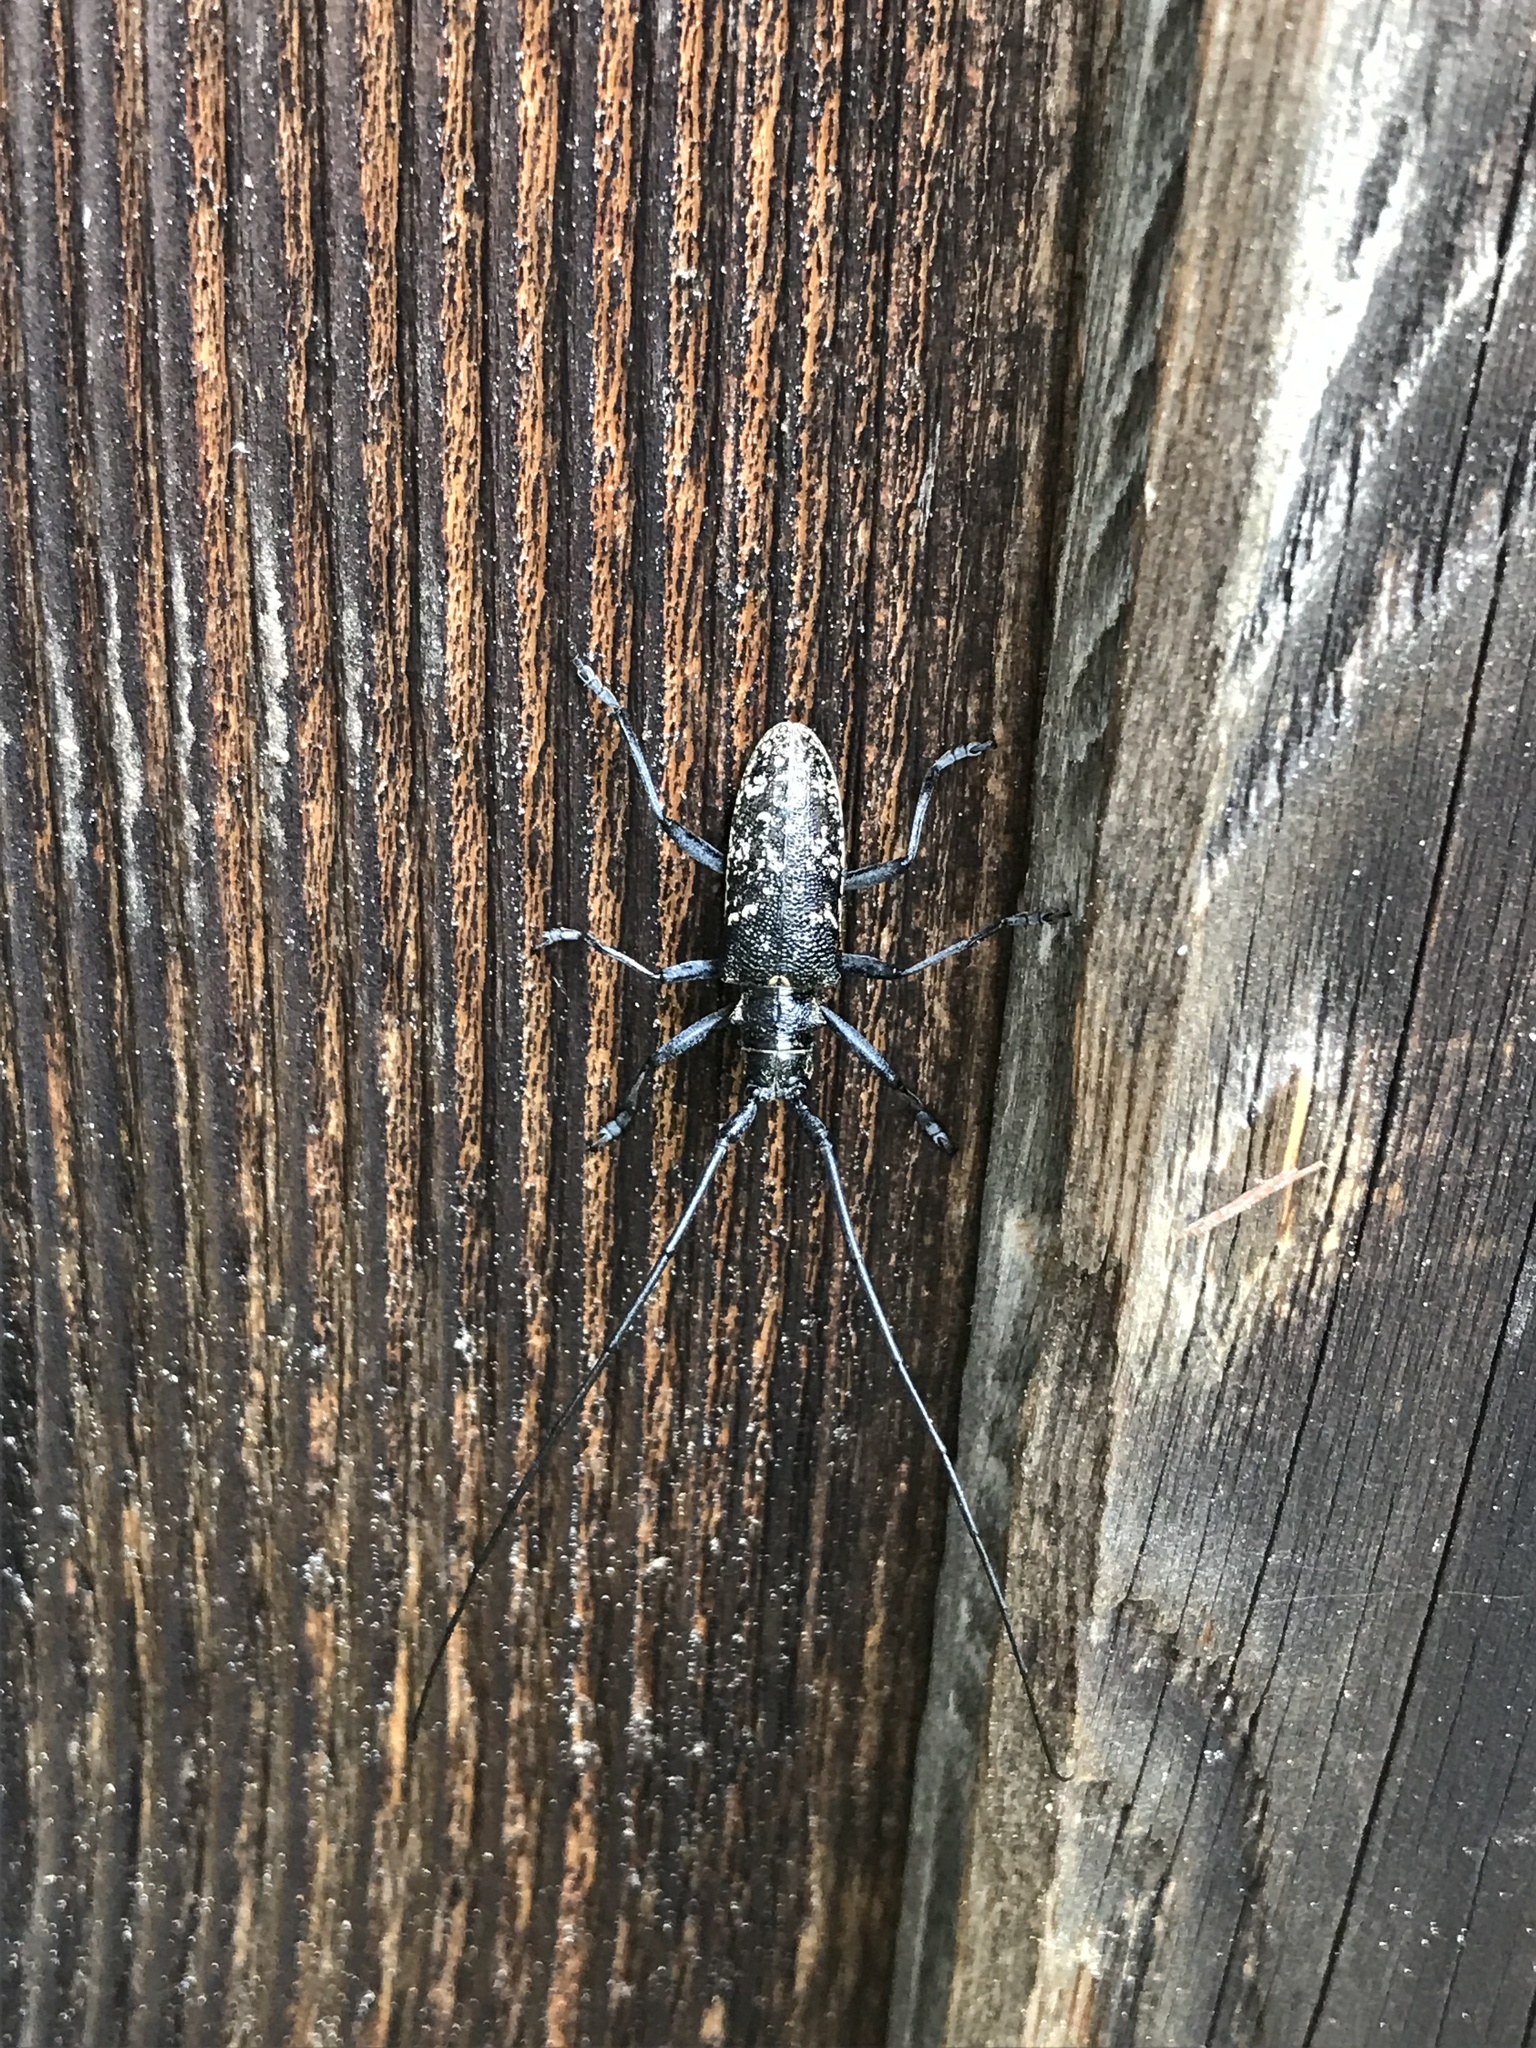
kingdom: Animalia
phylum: Arthropoda
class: Insecta
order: Coleoptera
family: Cerambycidae
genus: Monochamus
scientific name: Monochamus sutor
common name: Pine sawyer
